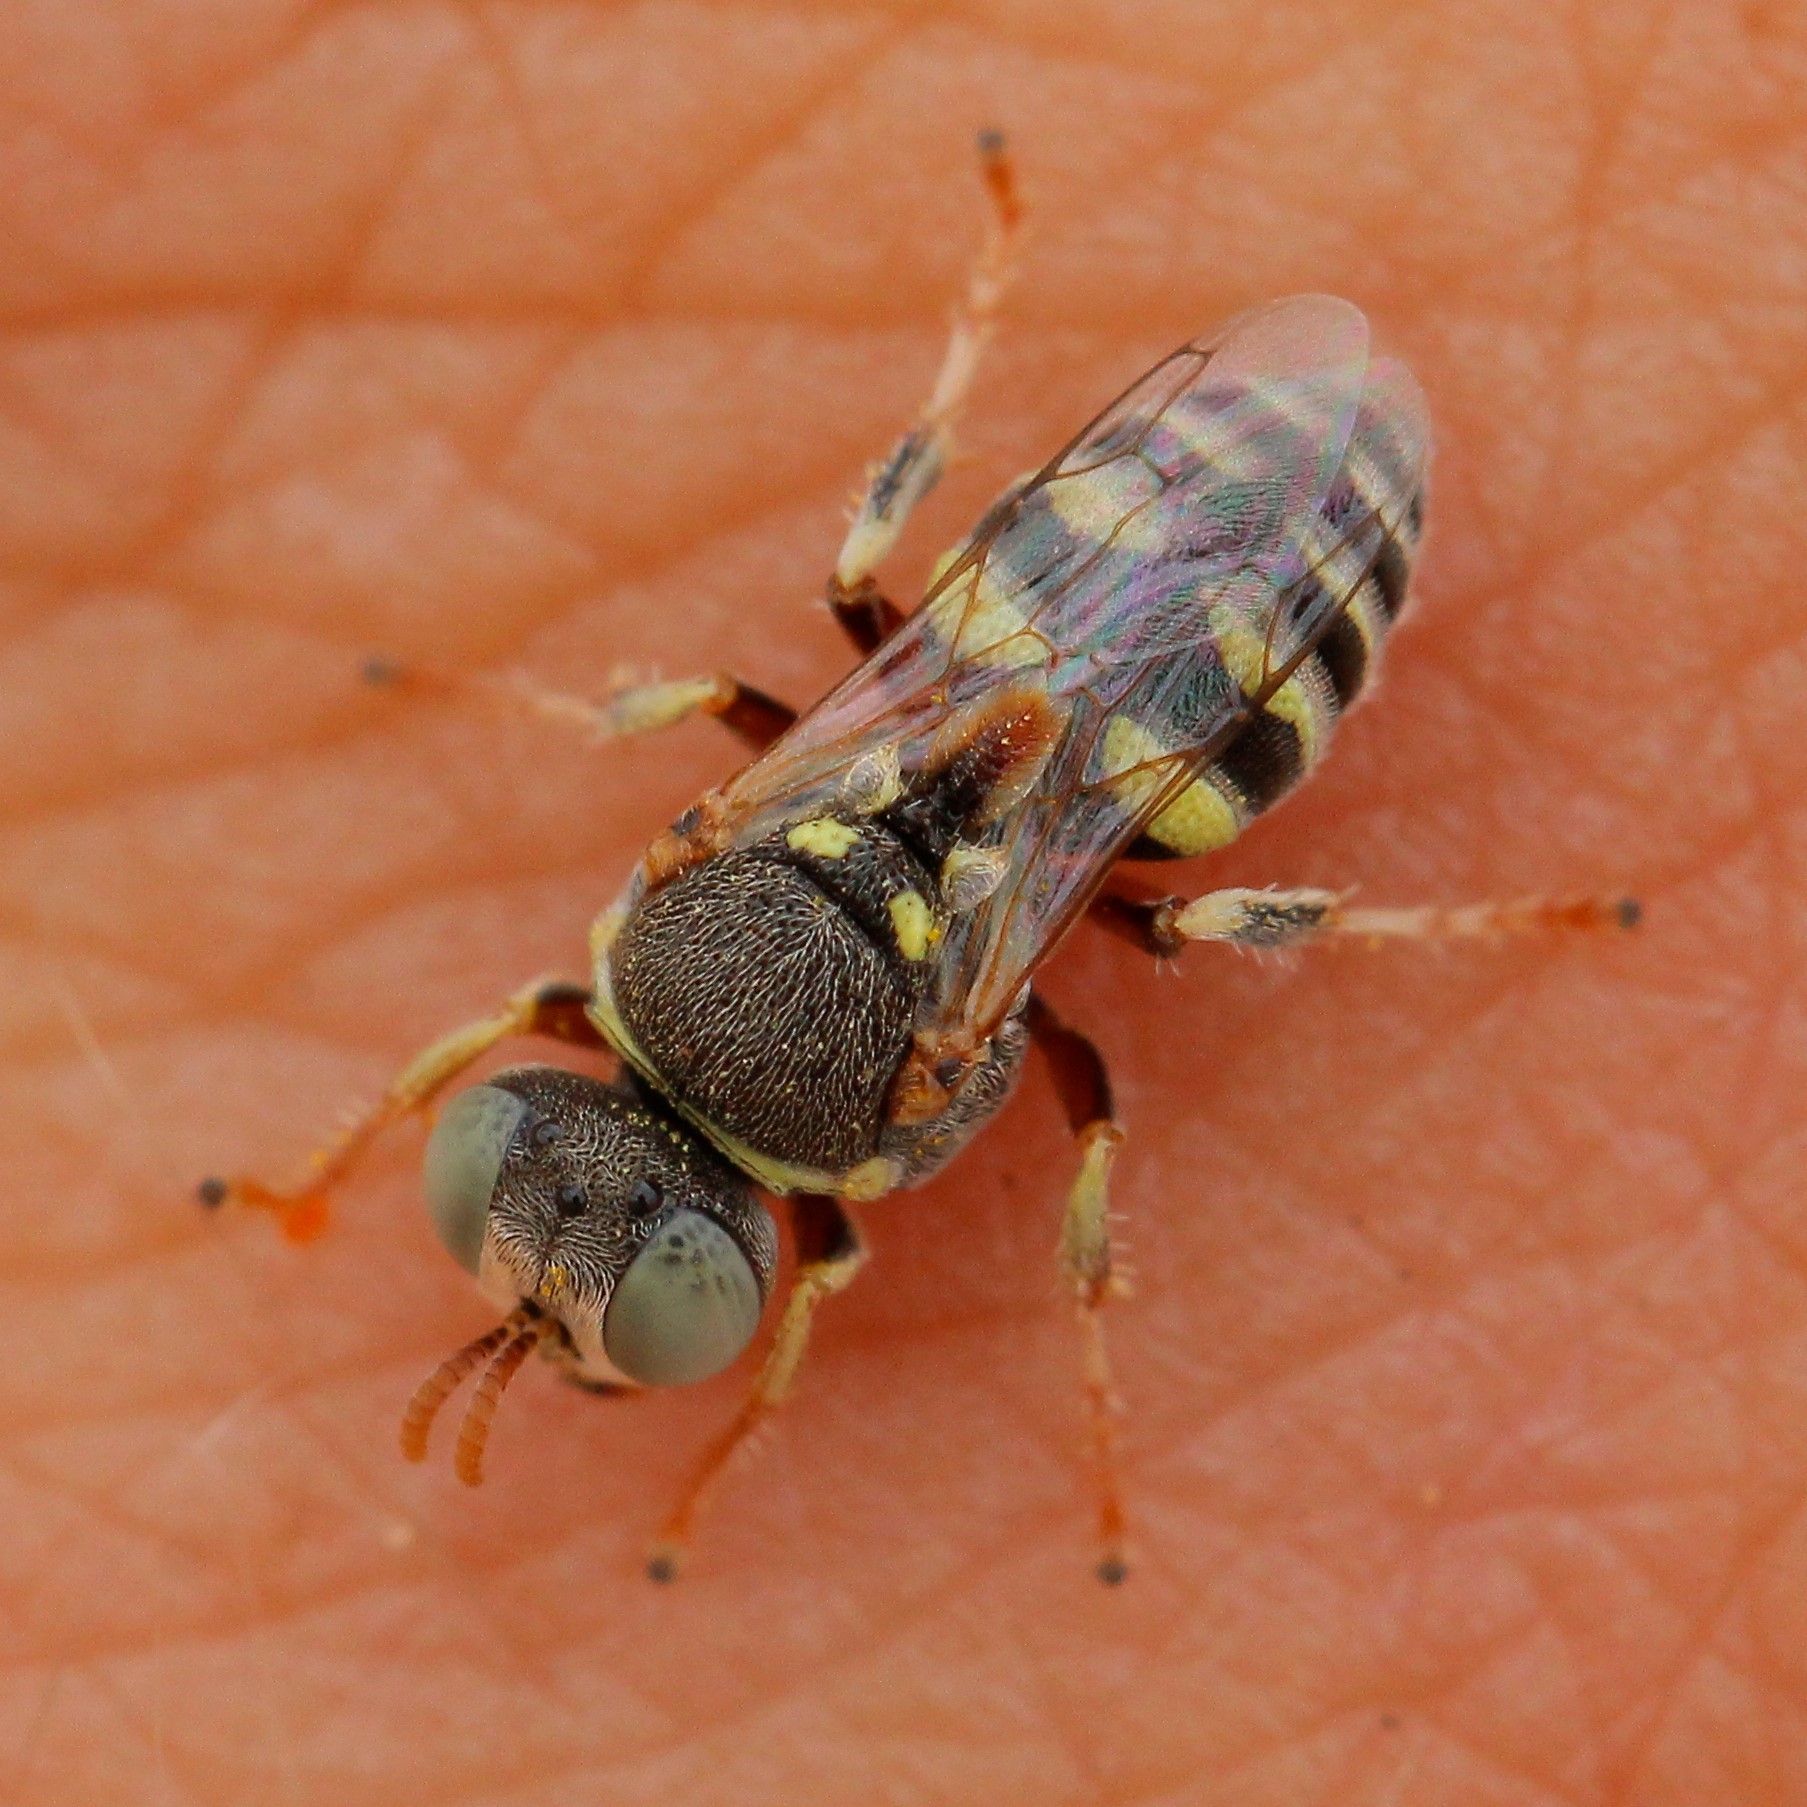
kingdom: Animalia
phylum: Arthropoda
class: Insecta
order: Hymenoptera
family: Crabronidae
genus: Oxybelus
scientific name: Oxybelus lamellatus
